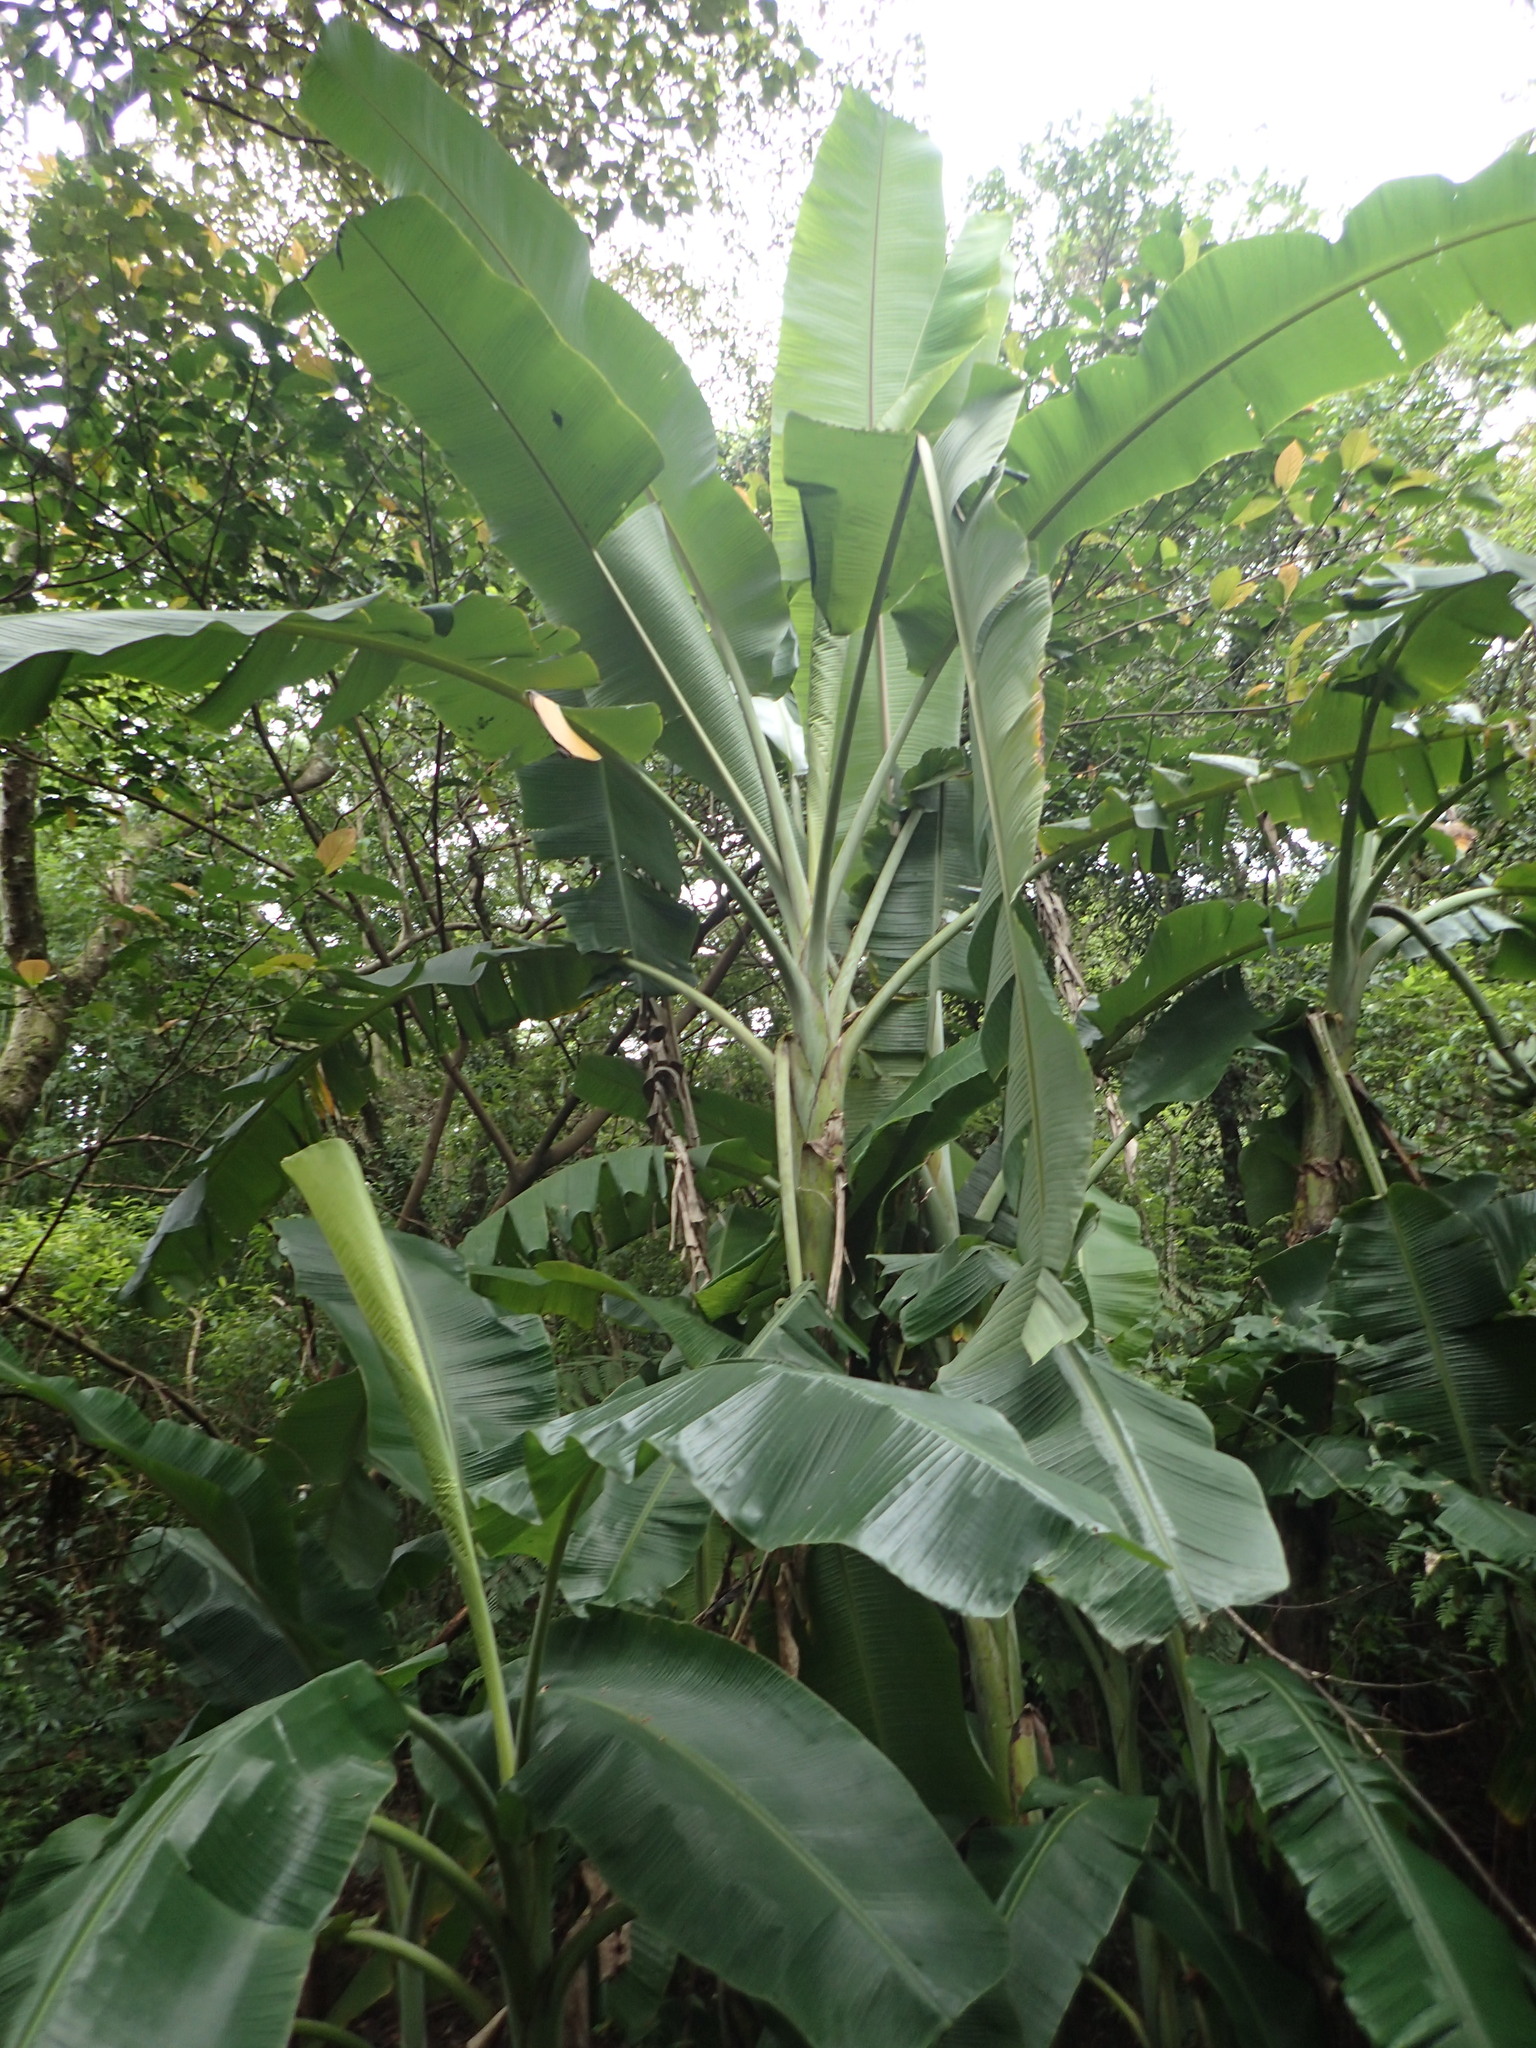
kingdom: Plantae
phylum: Tracheophyta
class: Liliopsida
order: Zingiberales
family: Musaceae
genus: Musa
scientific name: Musa balbisiana
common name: Plantain
